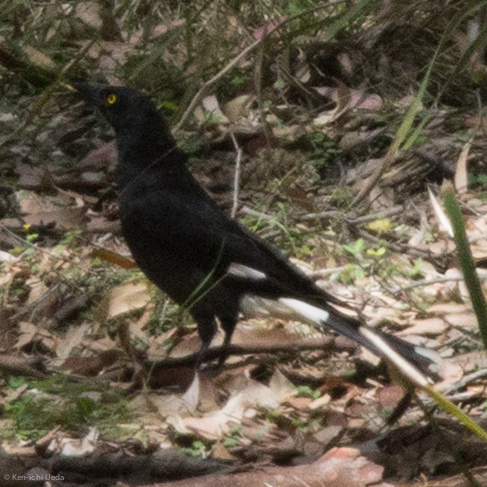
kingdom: Animalia
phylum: Chordata
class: Aves
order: Passeriformes
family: Cracticidae
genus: Strepera
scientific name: Strepera graculina
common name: Pied currawong
